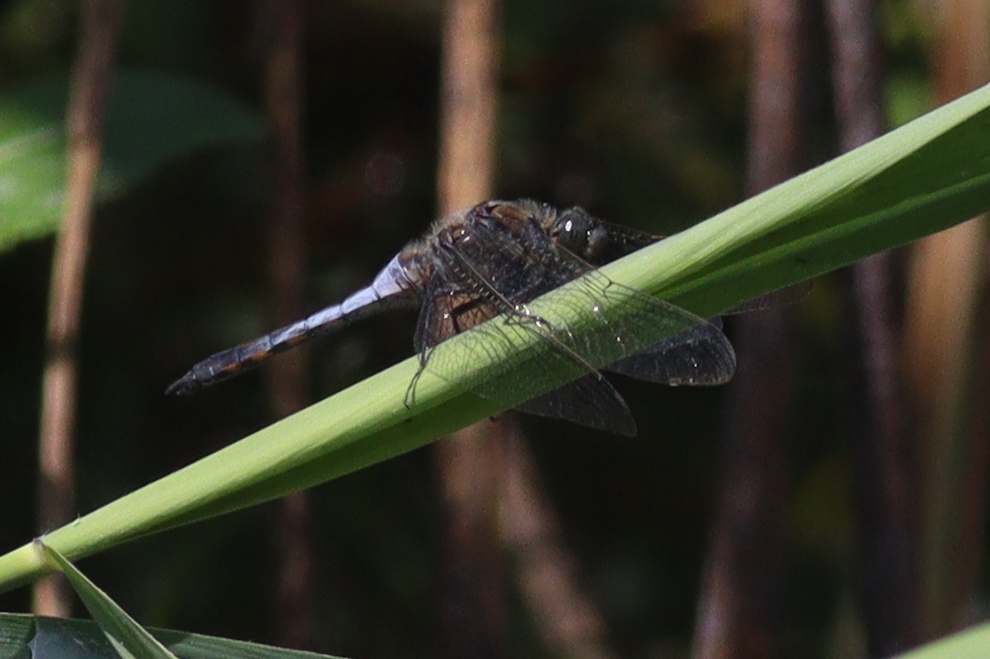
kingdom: Animalia
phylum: Arthropoda
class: Insecta
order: Odonata
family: Libellulidae
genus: Orthetrum
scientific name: Orthetrum cancellatum
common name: Black-tailed skimmer
